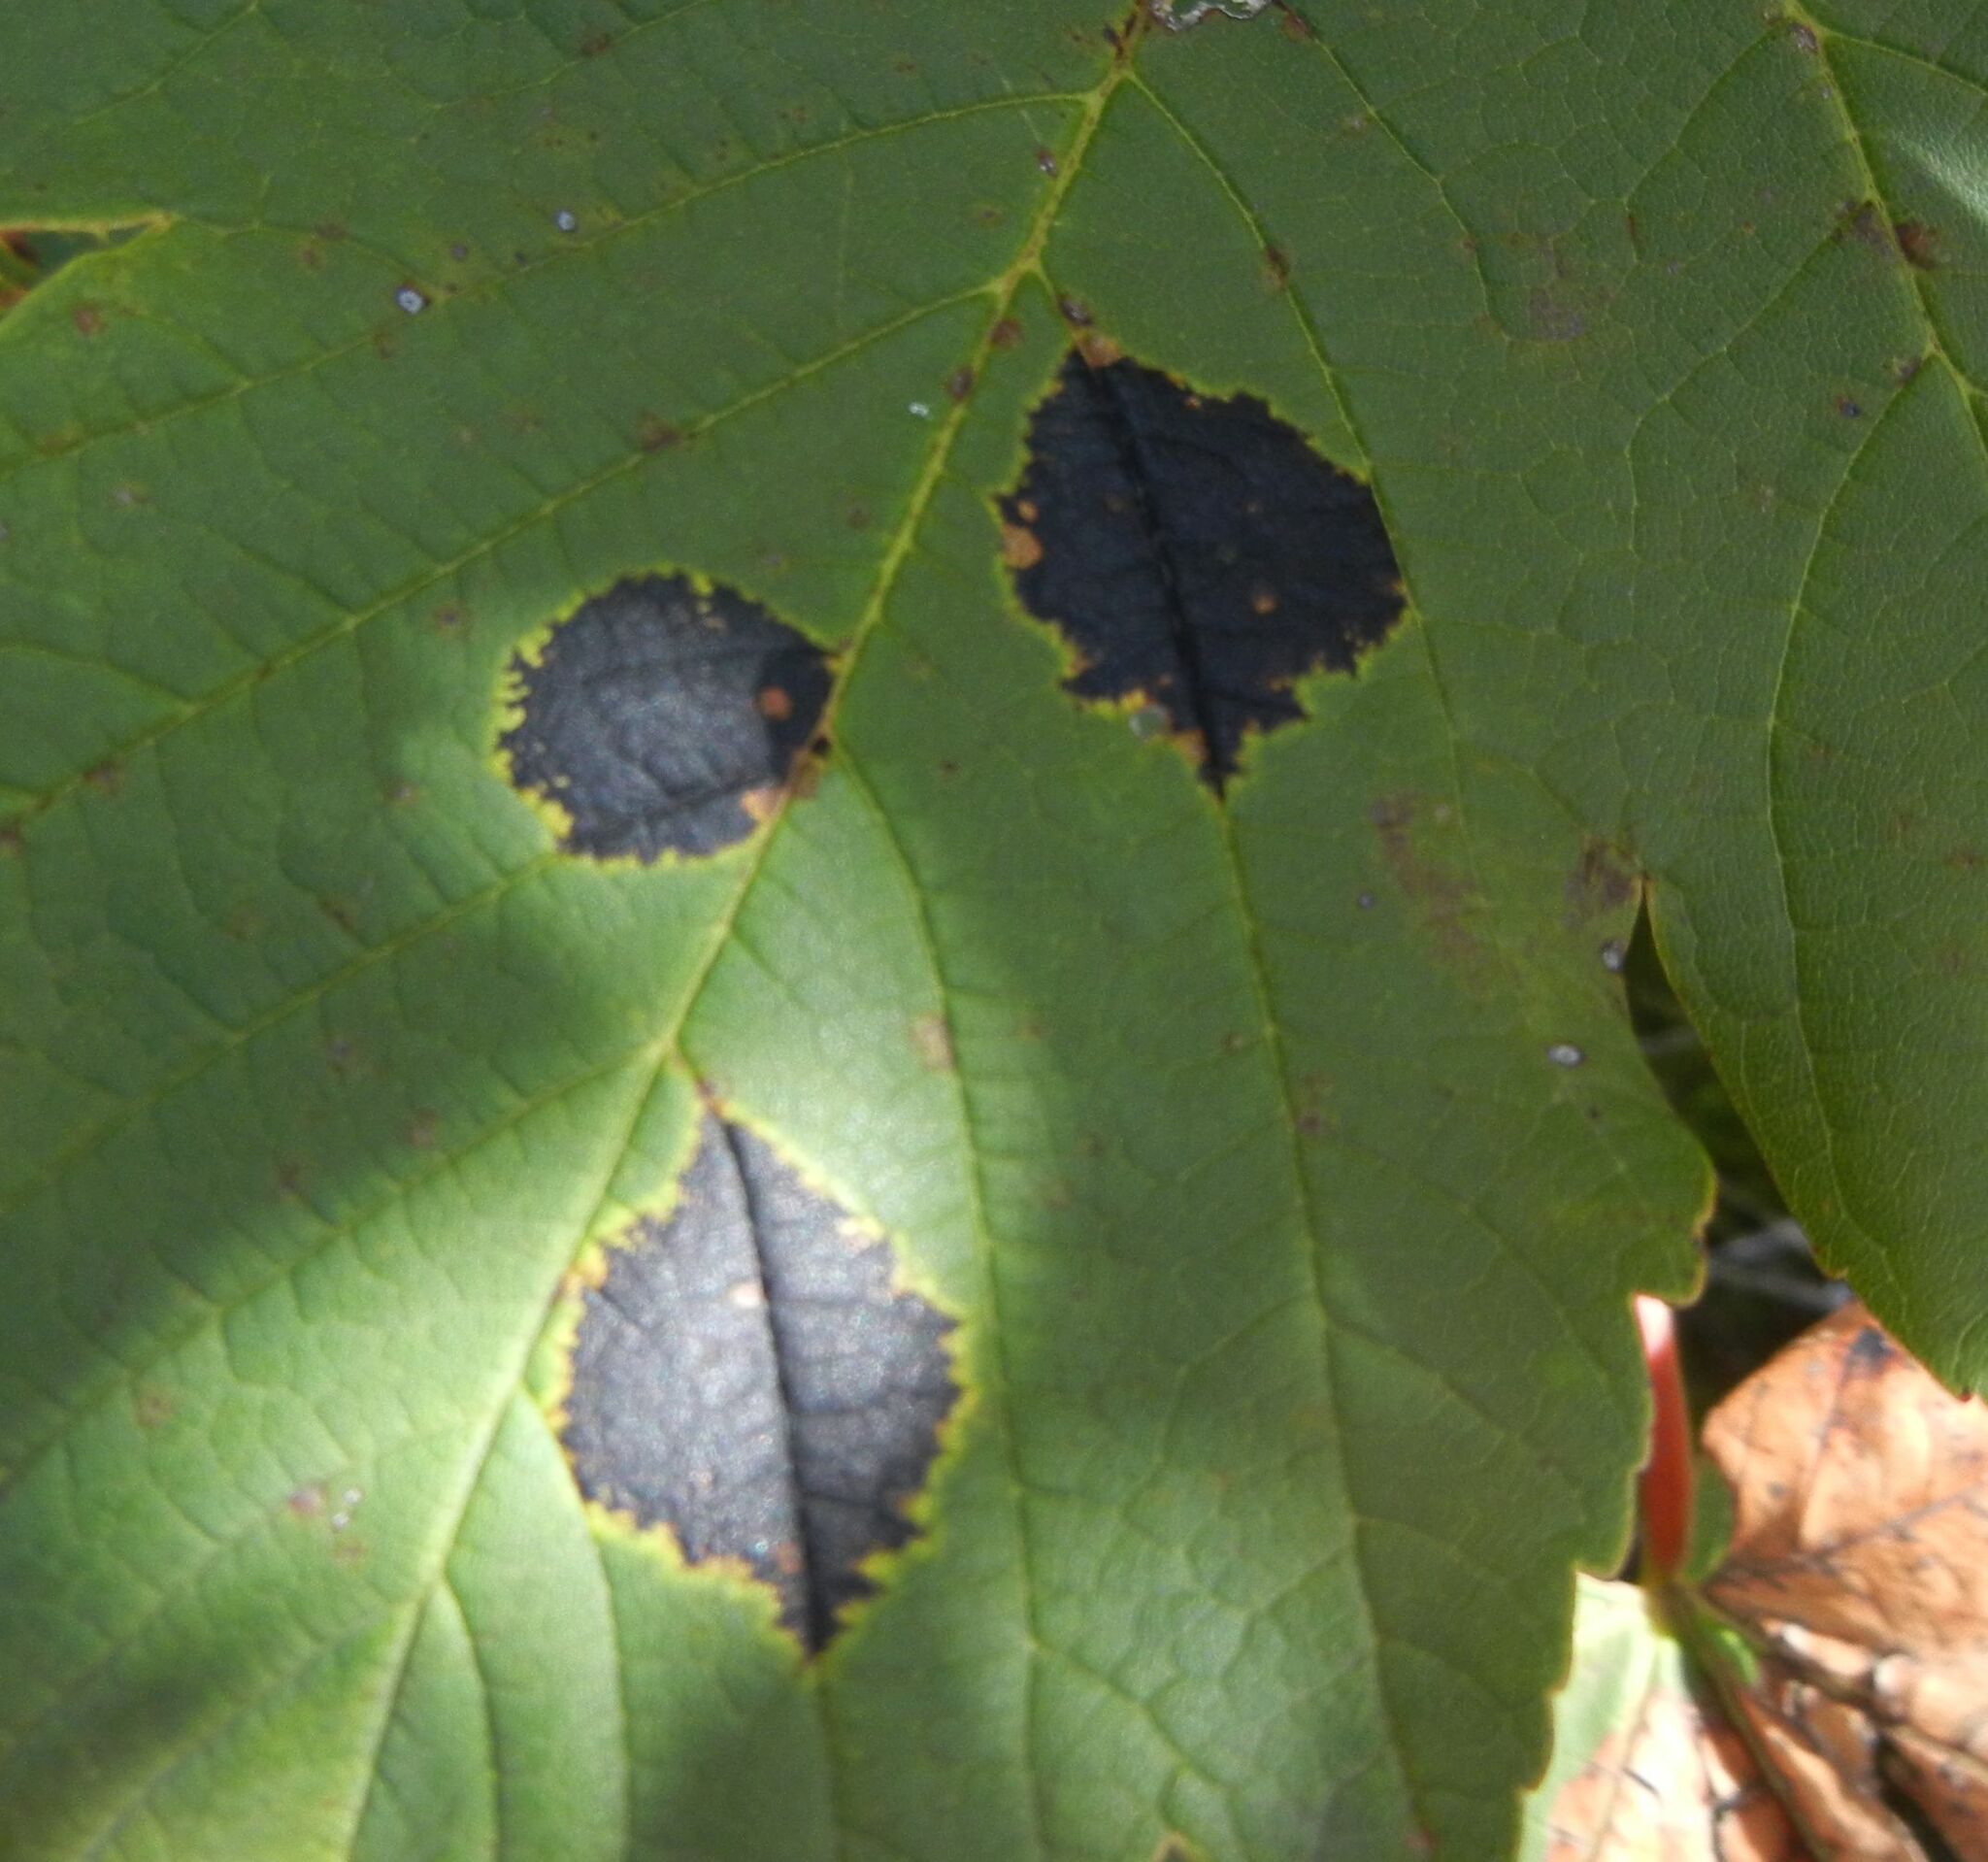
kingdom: Fungi
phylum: Ascomycota
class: Leotiomycetes
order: Rhytismatales
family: Rhytismataceae
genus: Rhytisma
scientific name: Rhytisma acerinum
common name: European tar spot
